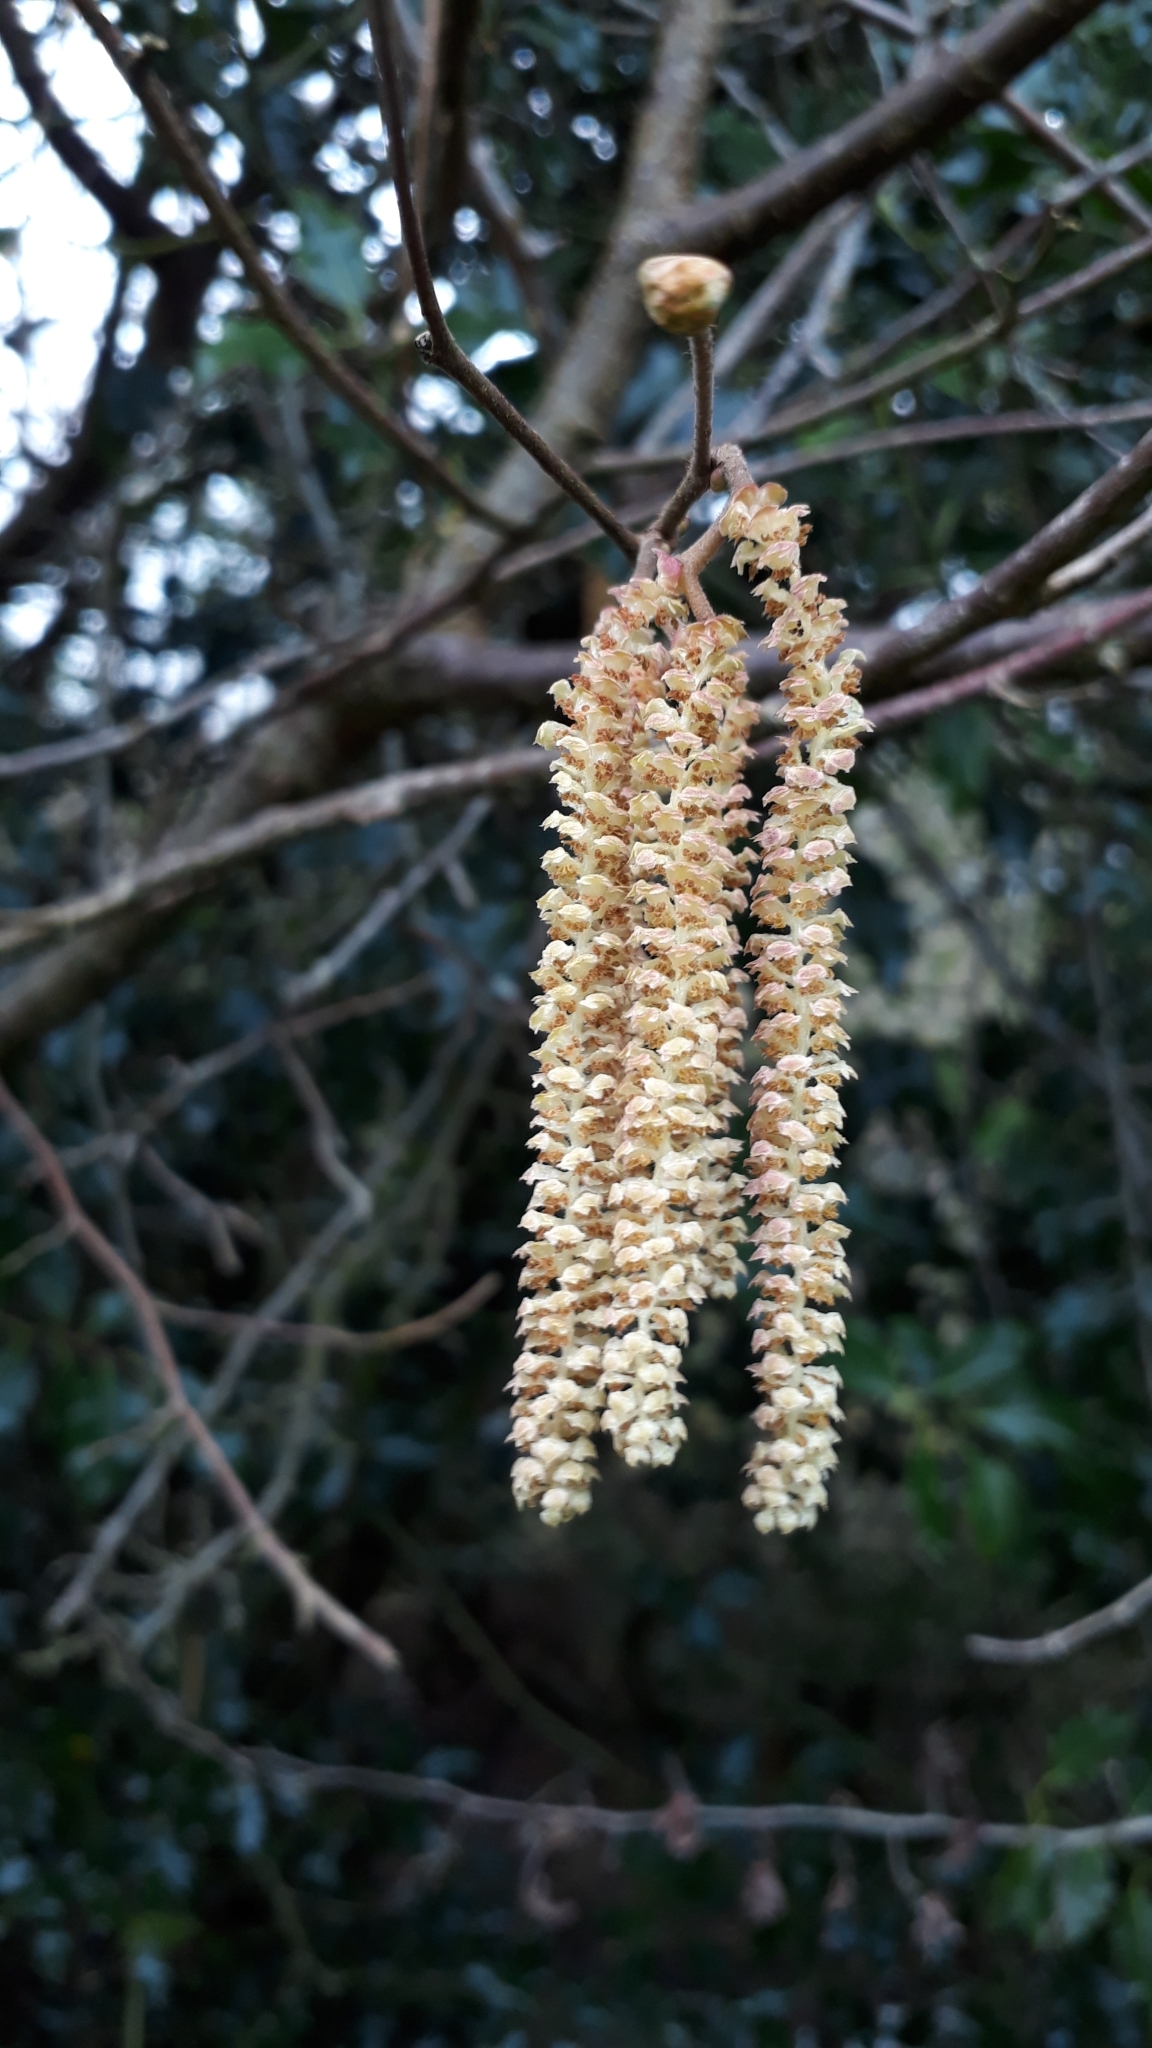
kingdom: Plantae
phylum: Tracheophyta
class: Magnoliopsida
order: Fagales
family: Betulaceae
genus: Corylus
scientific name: Corylus avellana
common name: European hazel
